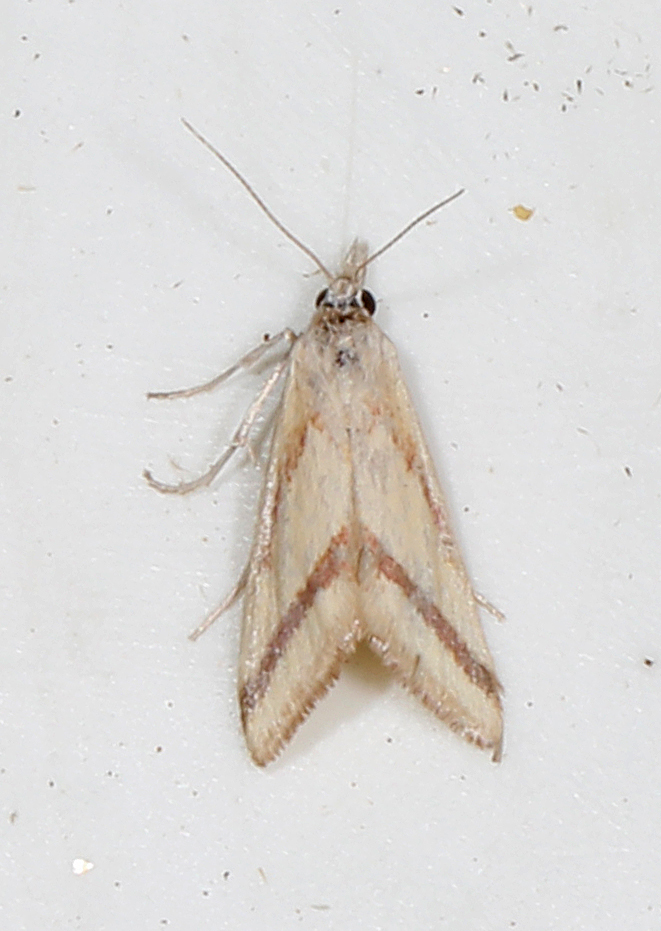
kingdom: Animalia
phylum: Arthropoda
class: Insecta
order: Lepidoptera
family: Crambidae
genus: Microtheoris
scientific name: Microtheoris vibicalis
